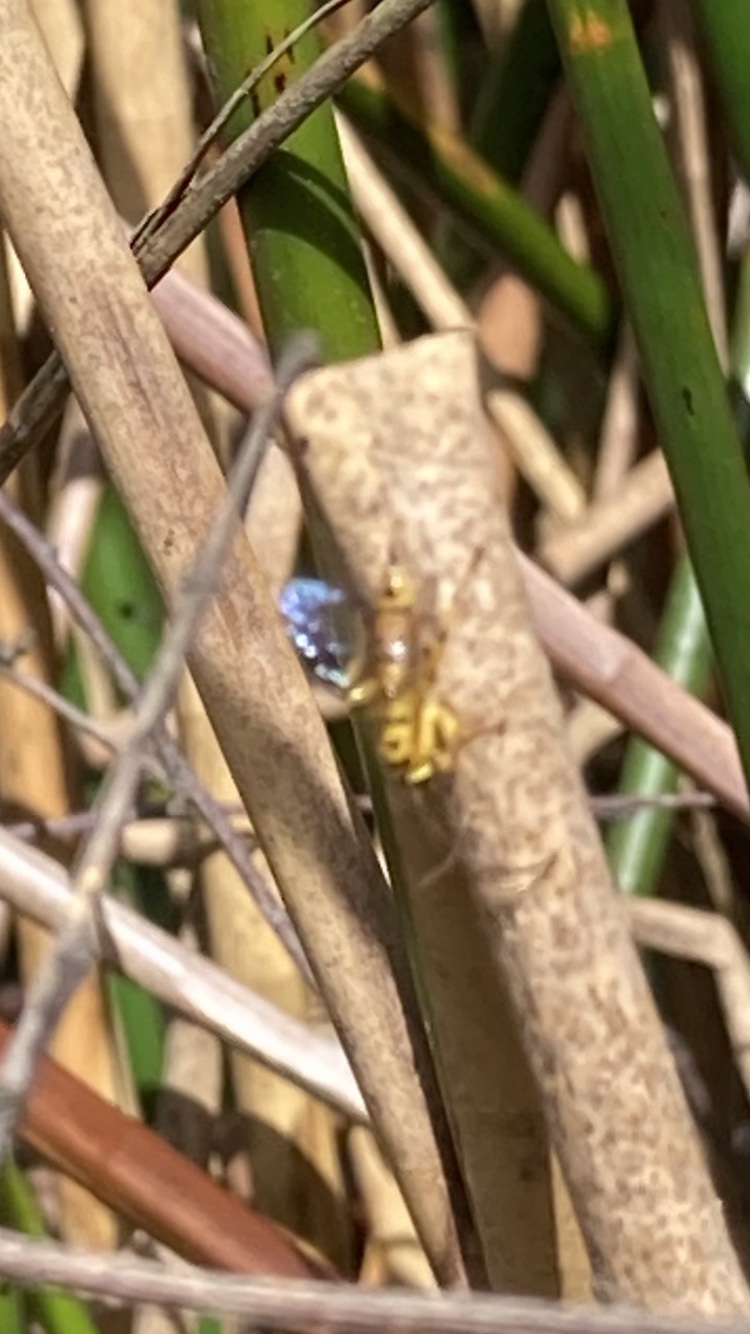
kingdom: Animalia
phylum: Arthropoda
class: Insecta
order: Hymenoptera
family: Ichneumonidae
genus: Xanthopimpla
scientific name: Xanthopimpla rhopaloceros
